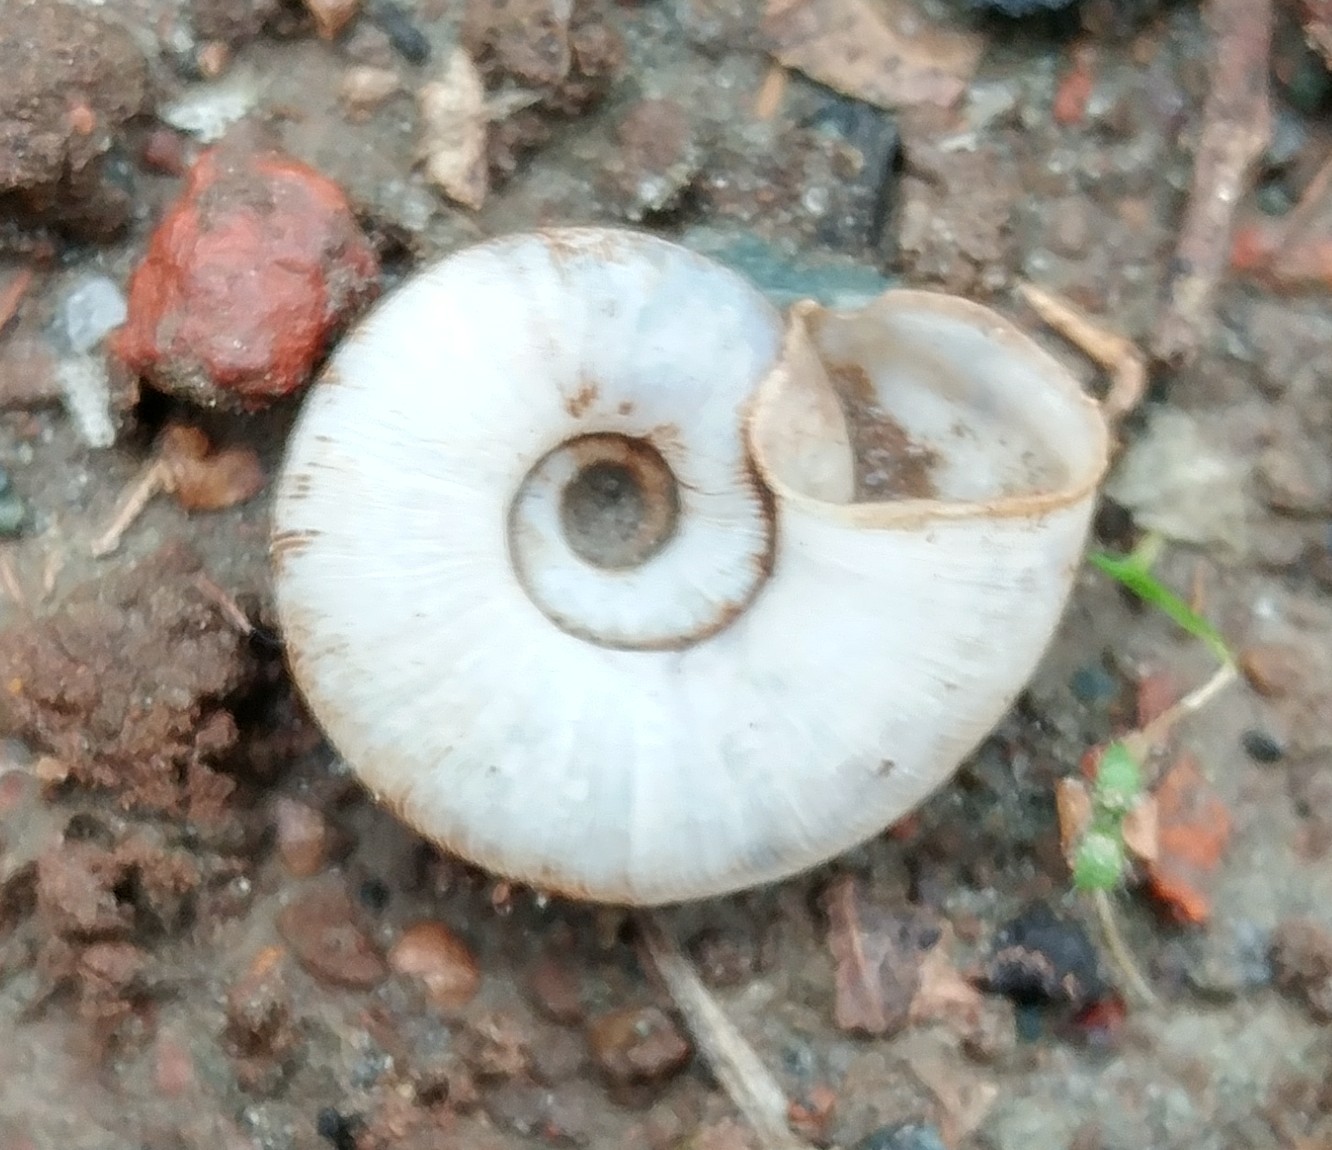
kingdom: Animalia
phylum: Mollusca
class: Gastropoda
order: Stylommatophora
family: Haplotrematidae
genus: Haplotrema
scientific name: Haplotrema transfuga
